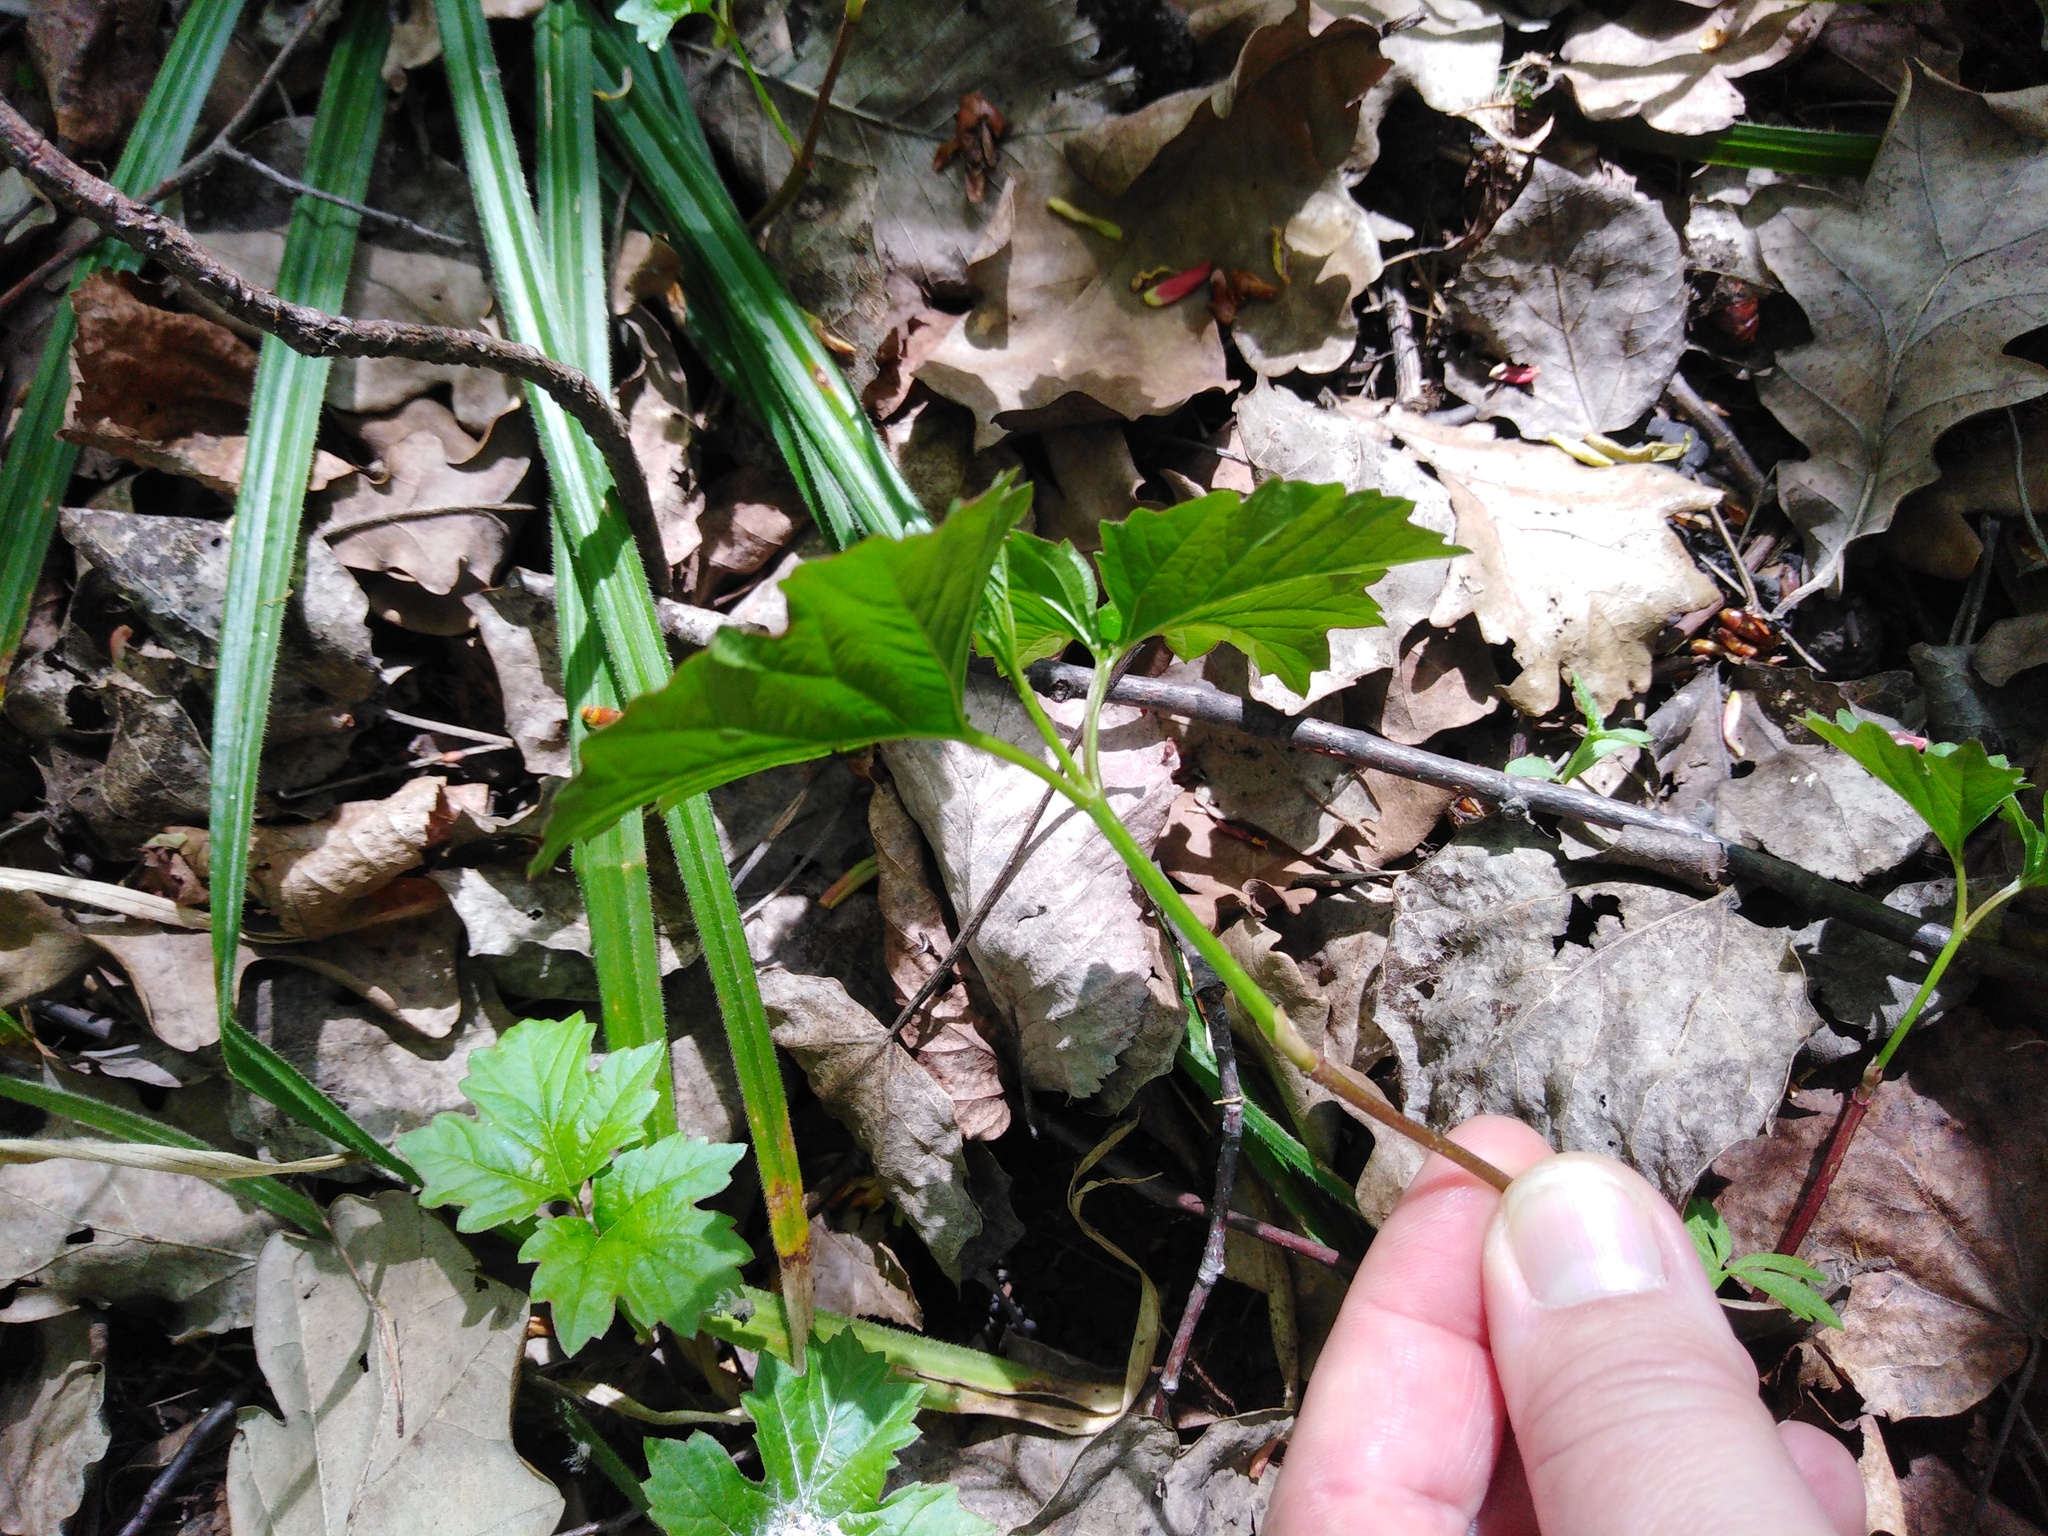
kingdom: Plantae
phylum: Tracheophyta
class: Magnoliopsida
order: Dipsacales
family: Viburnaceae
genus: Viburnum
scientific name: Viburnum opulus
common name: Guelder-rose
